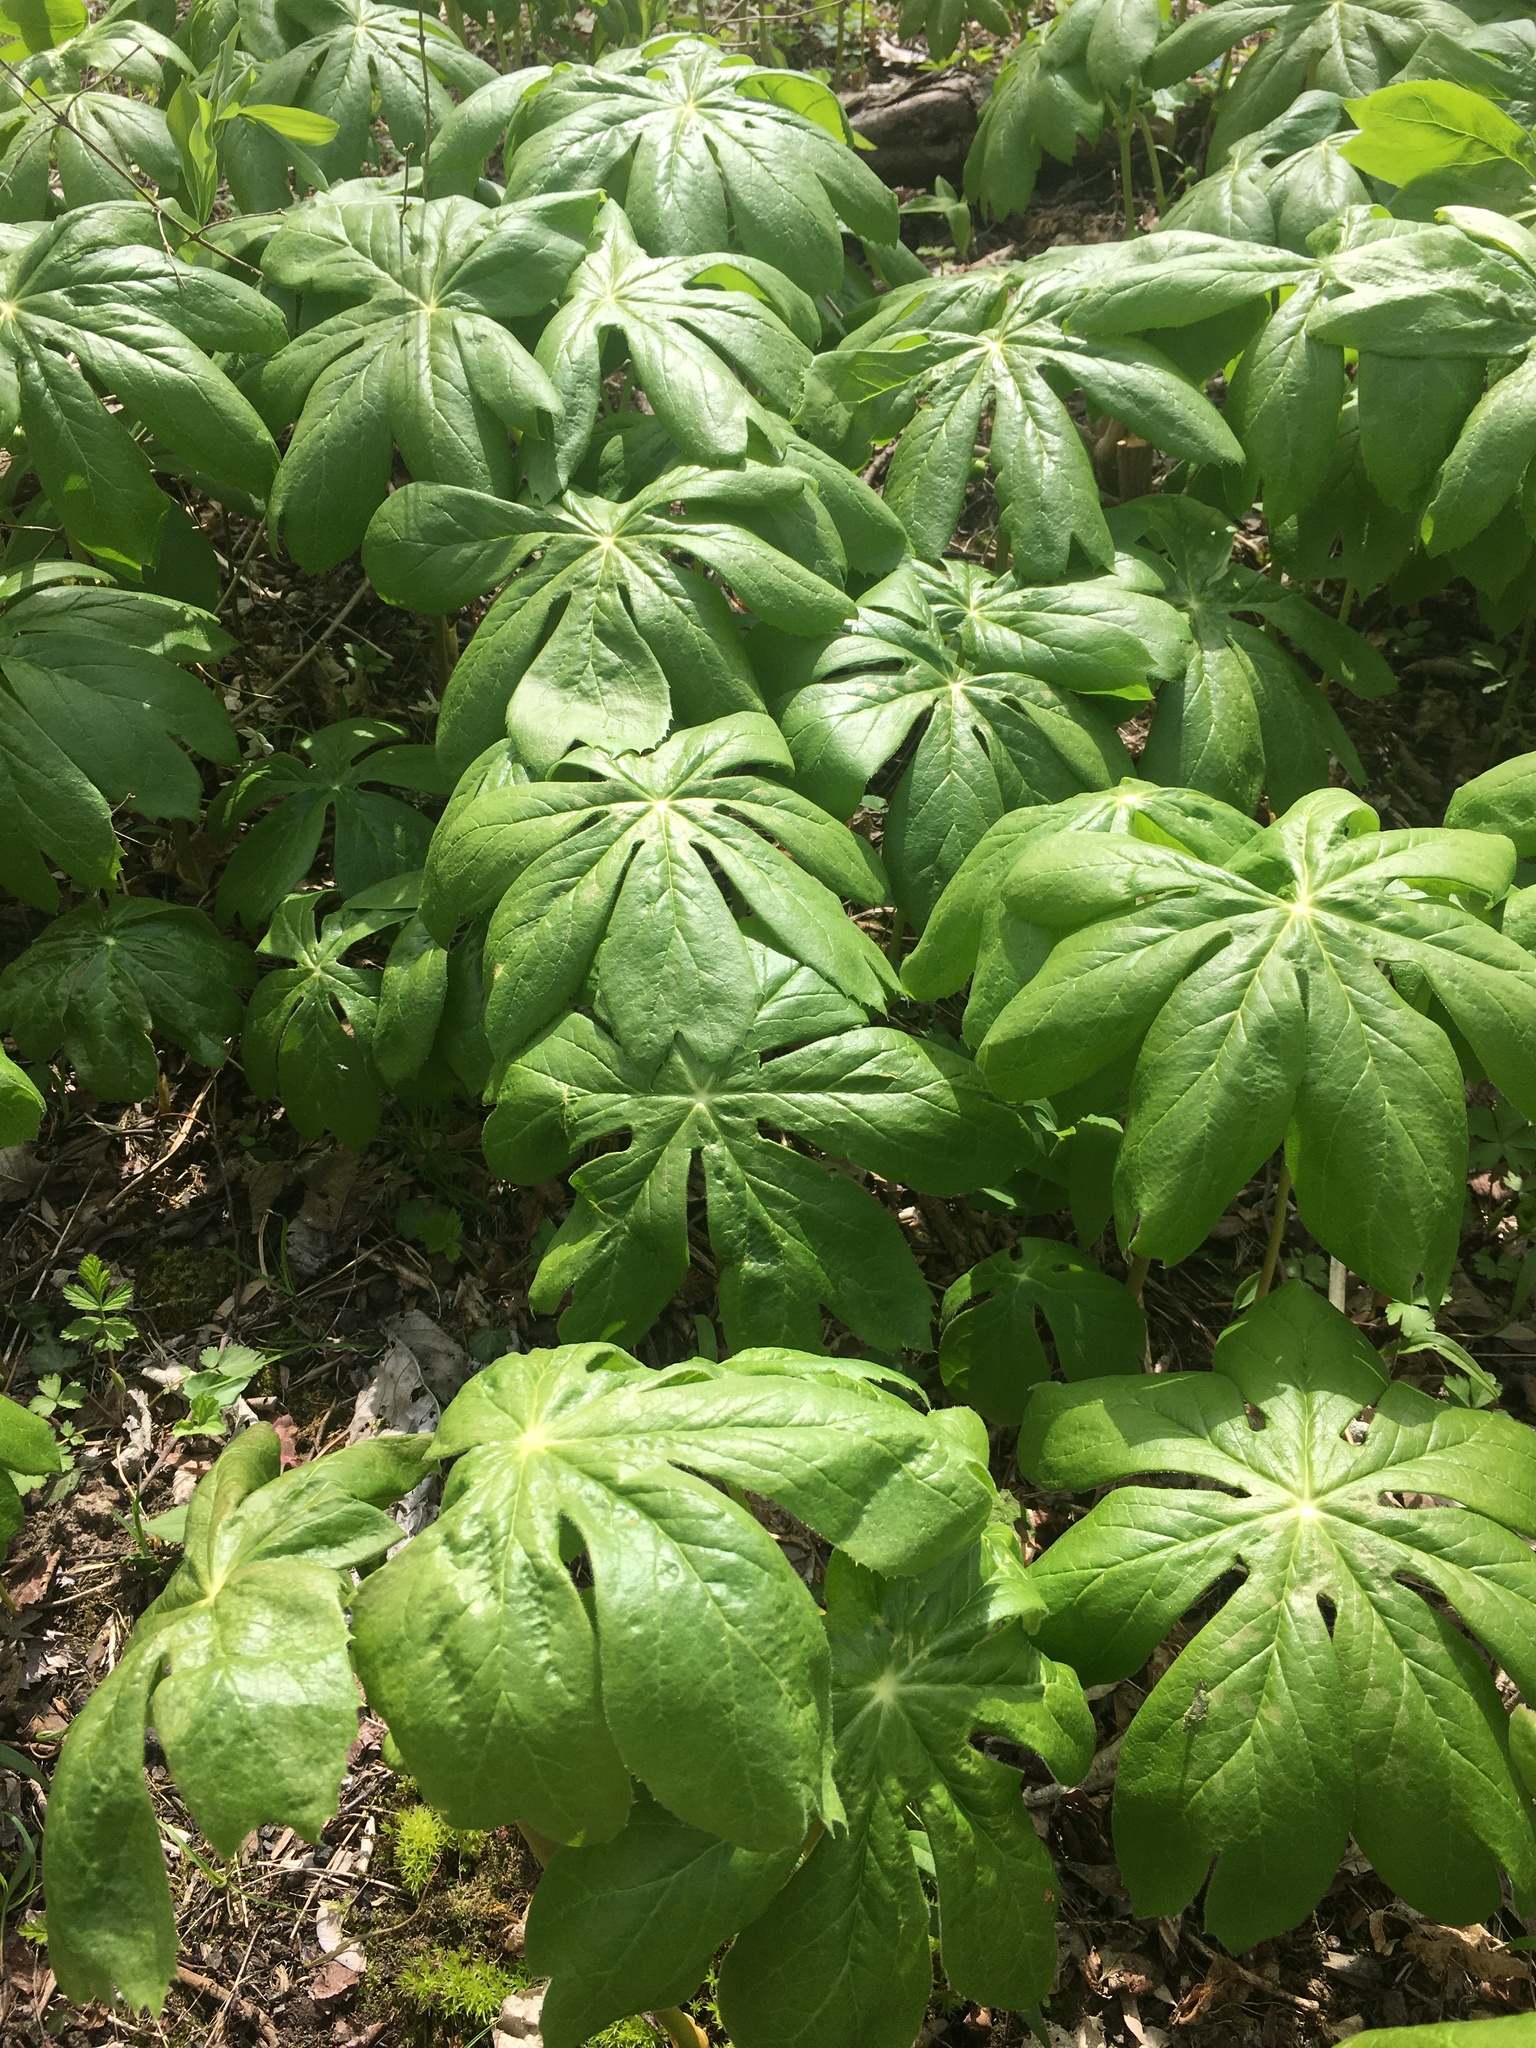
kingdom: Plantae
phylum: Tracheophyta
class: Magnoliopsida
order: Ranunculales
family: Berberidaceae
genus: Podophyllum
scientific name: Podophyllum peltatum
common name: Wild mandrake
